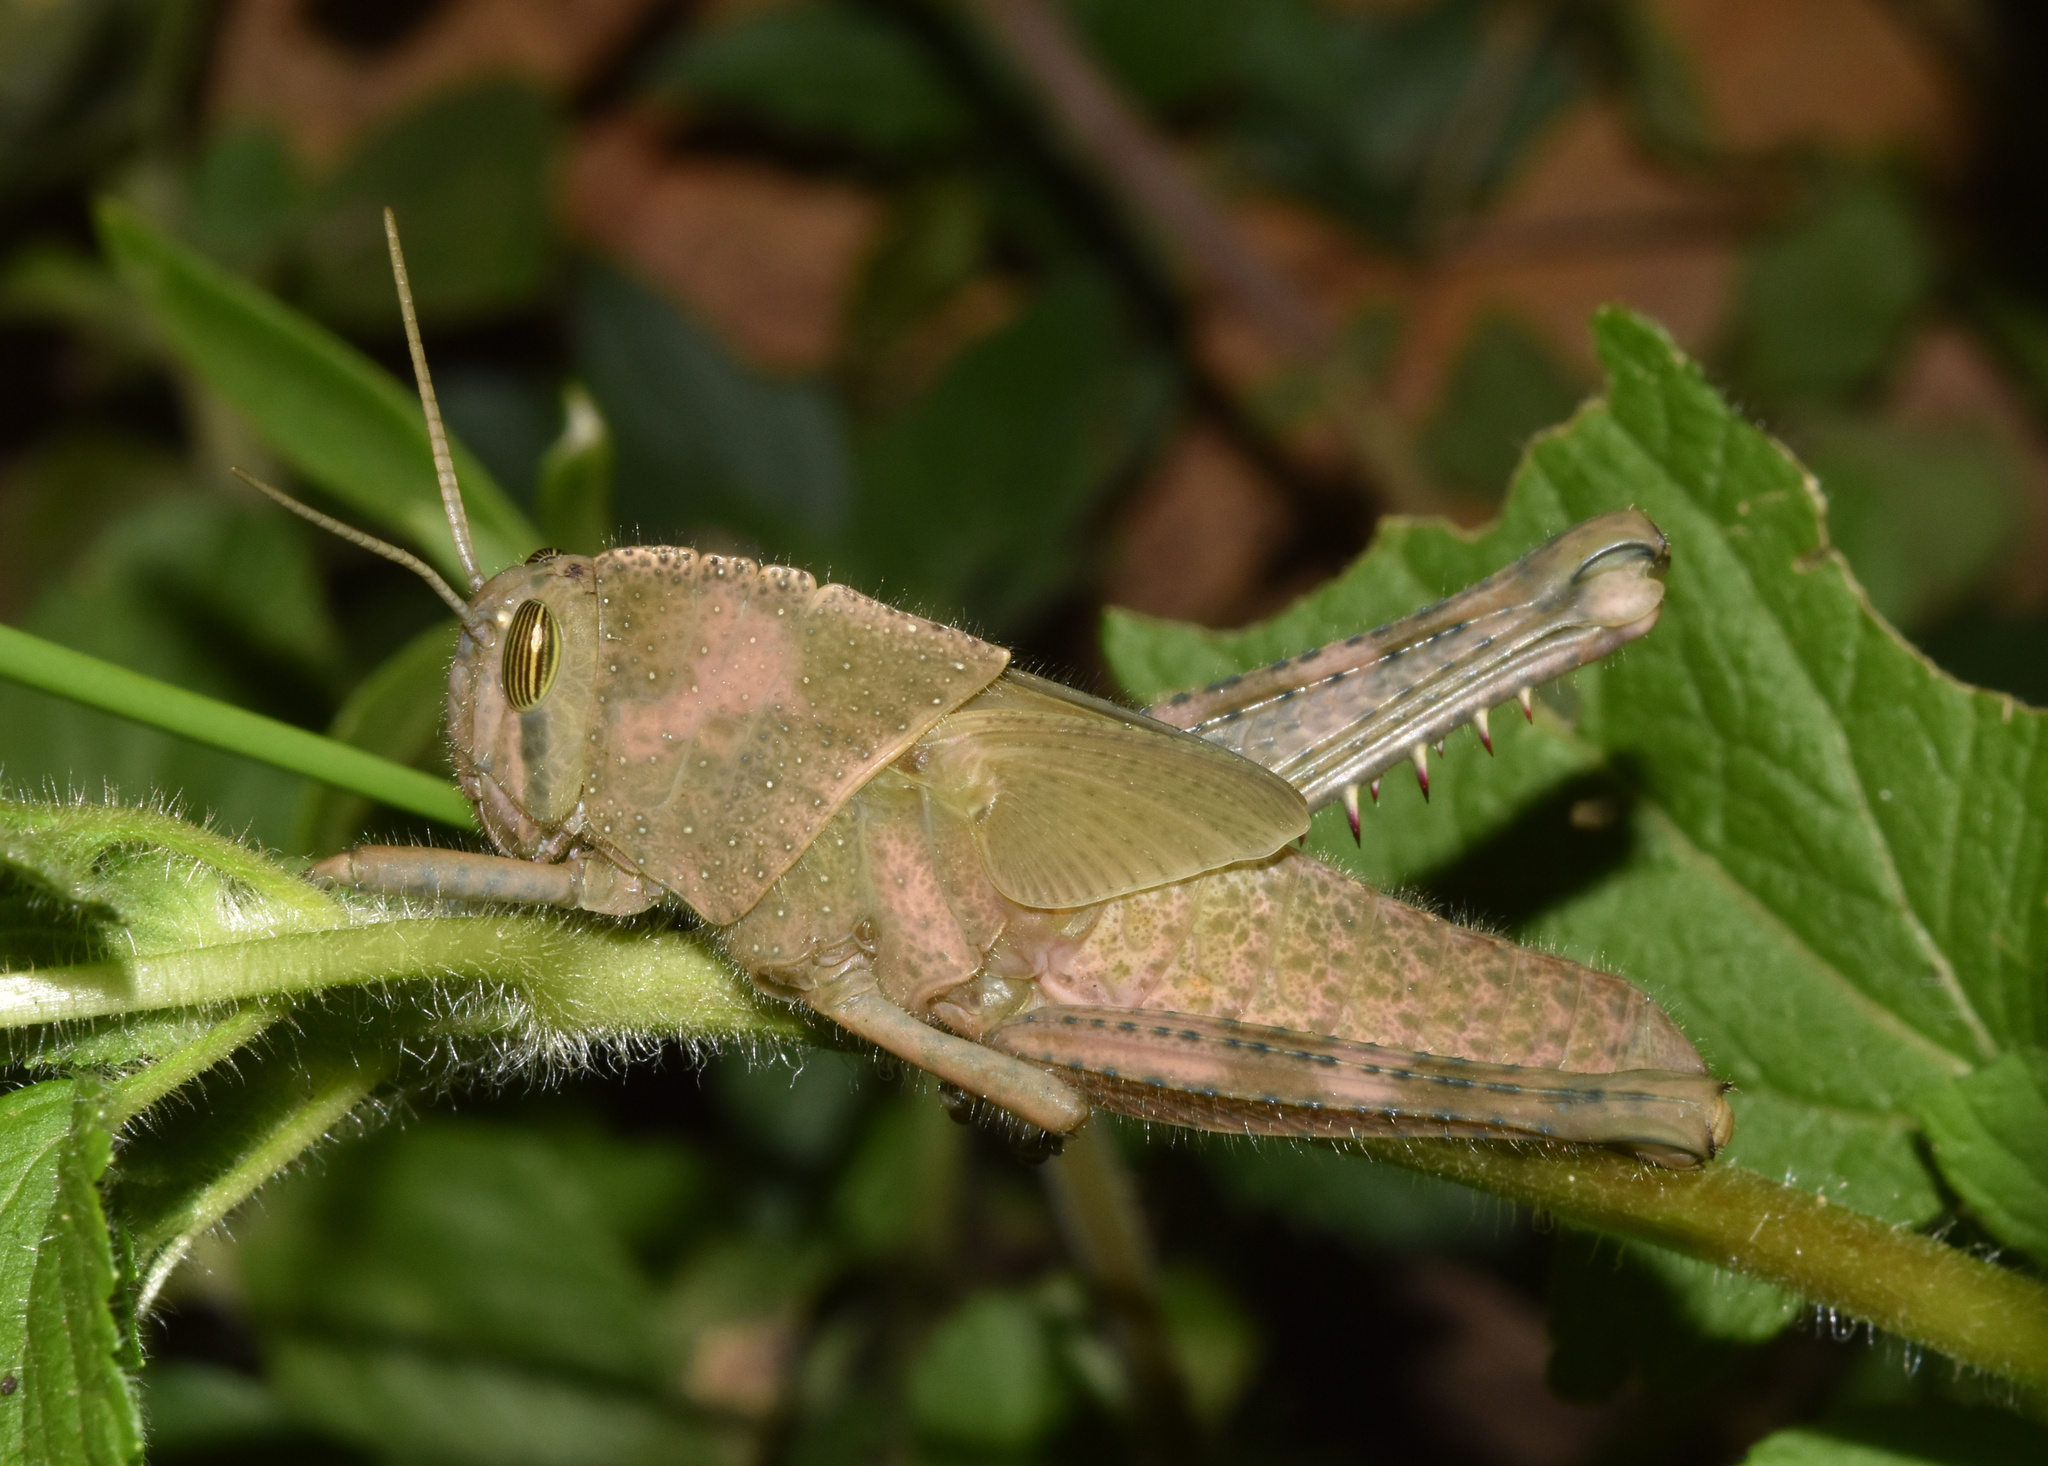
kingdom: Animalia
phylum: Arthropoda
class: Insecta
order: Orthoptera
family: Acrididae
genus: Acanthacris
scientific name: Acanthacris ruficornis
